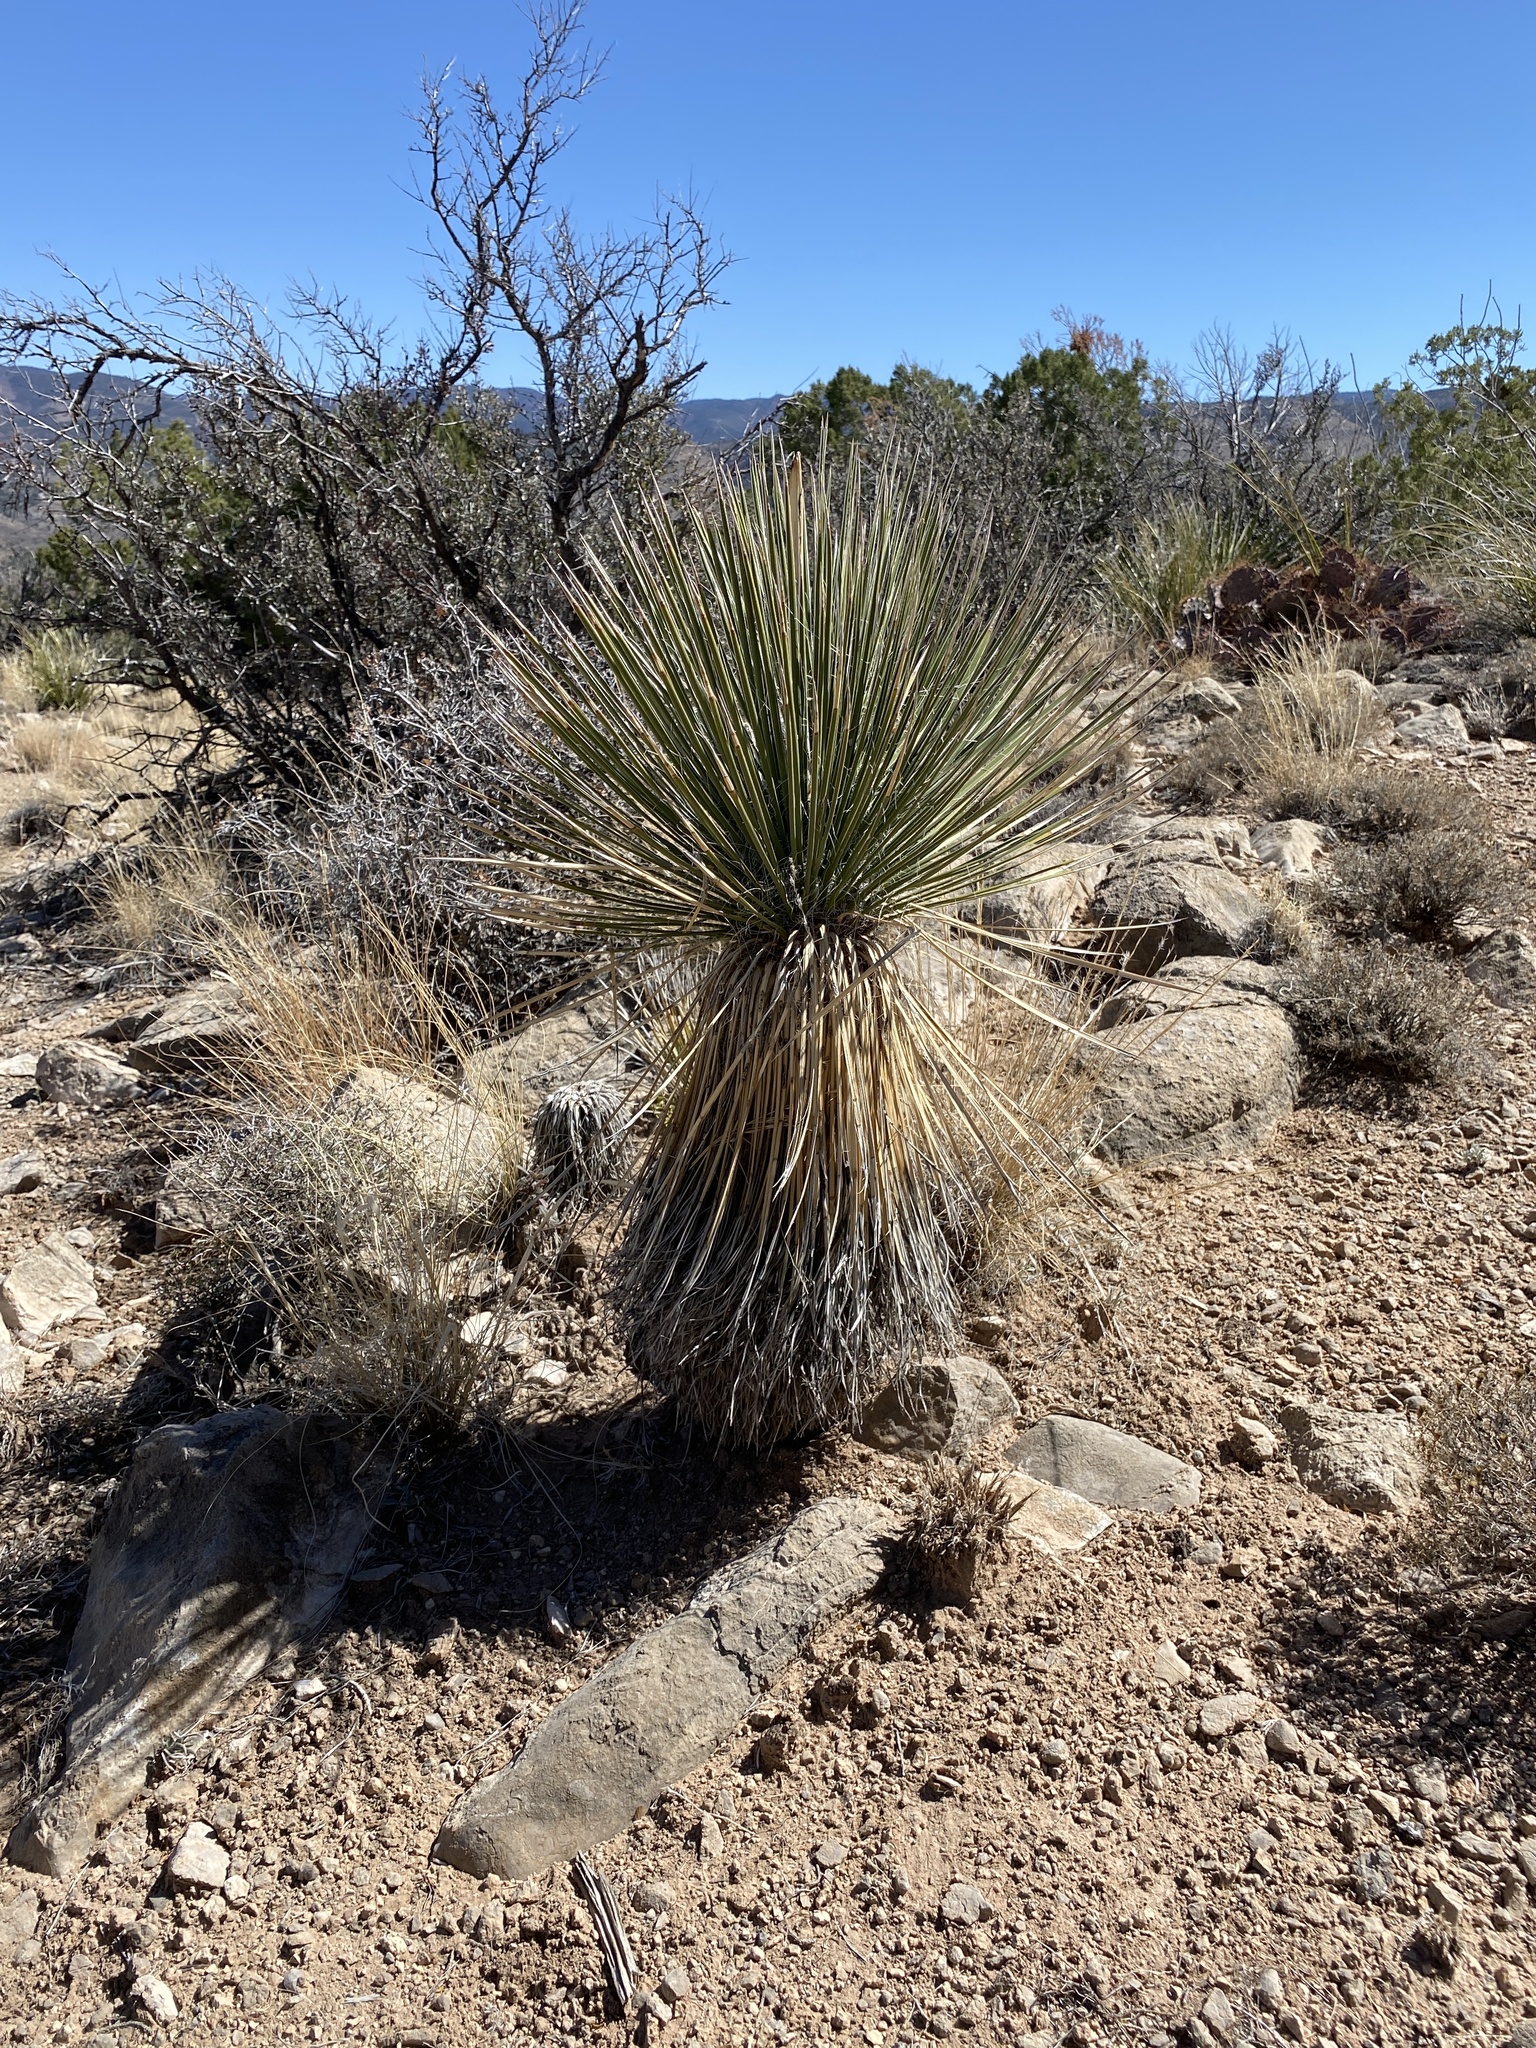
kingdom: Plantae
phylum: Tracheophyta
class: Liliopsida
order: Asparagales
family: Asparagaceae
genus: Yucca
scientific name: Yucca elata
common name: Palmella
